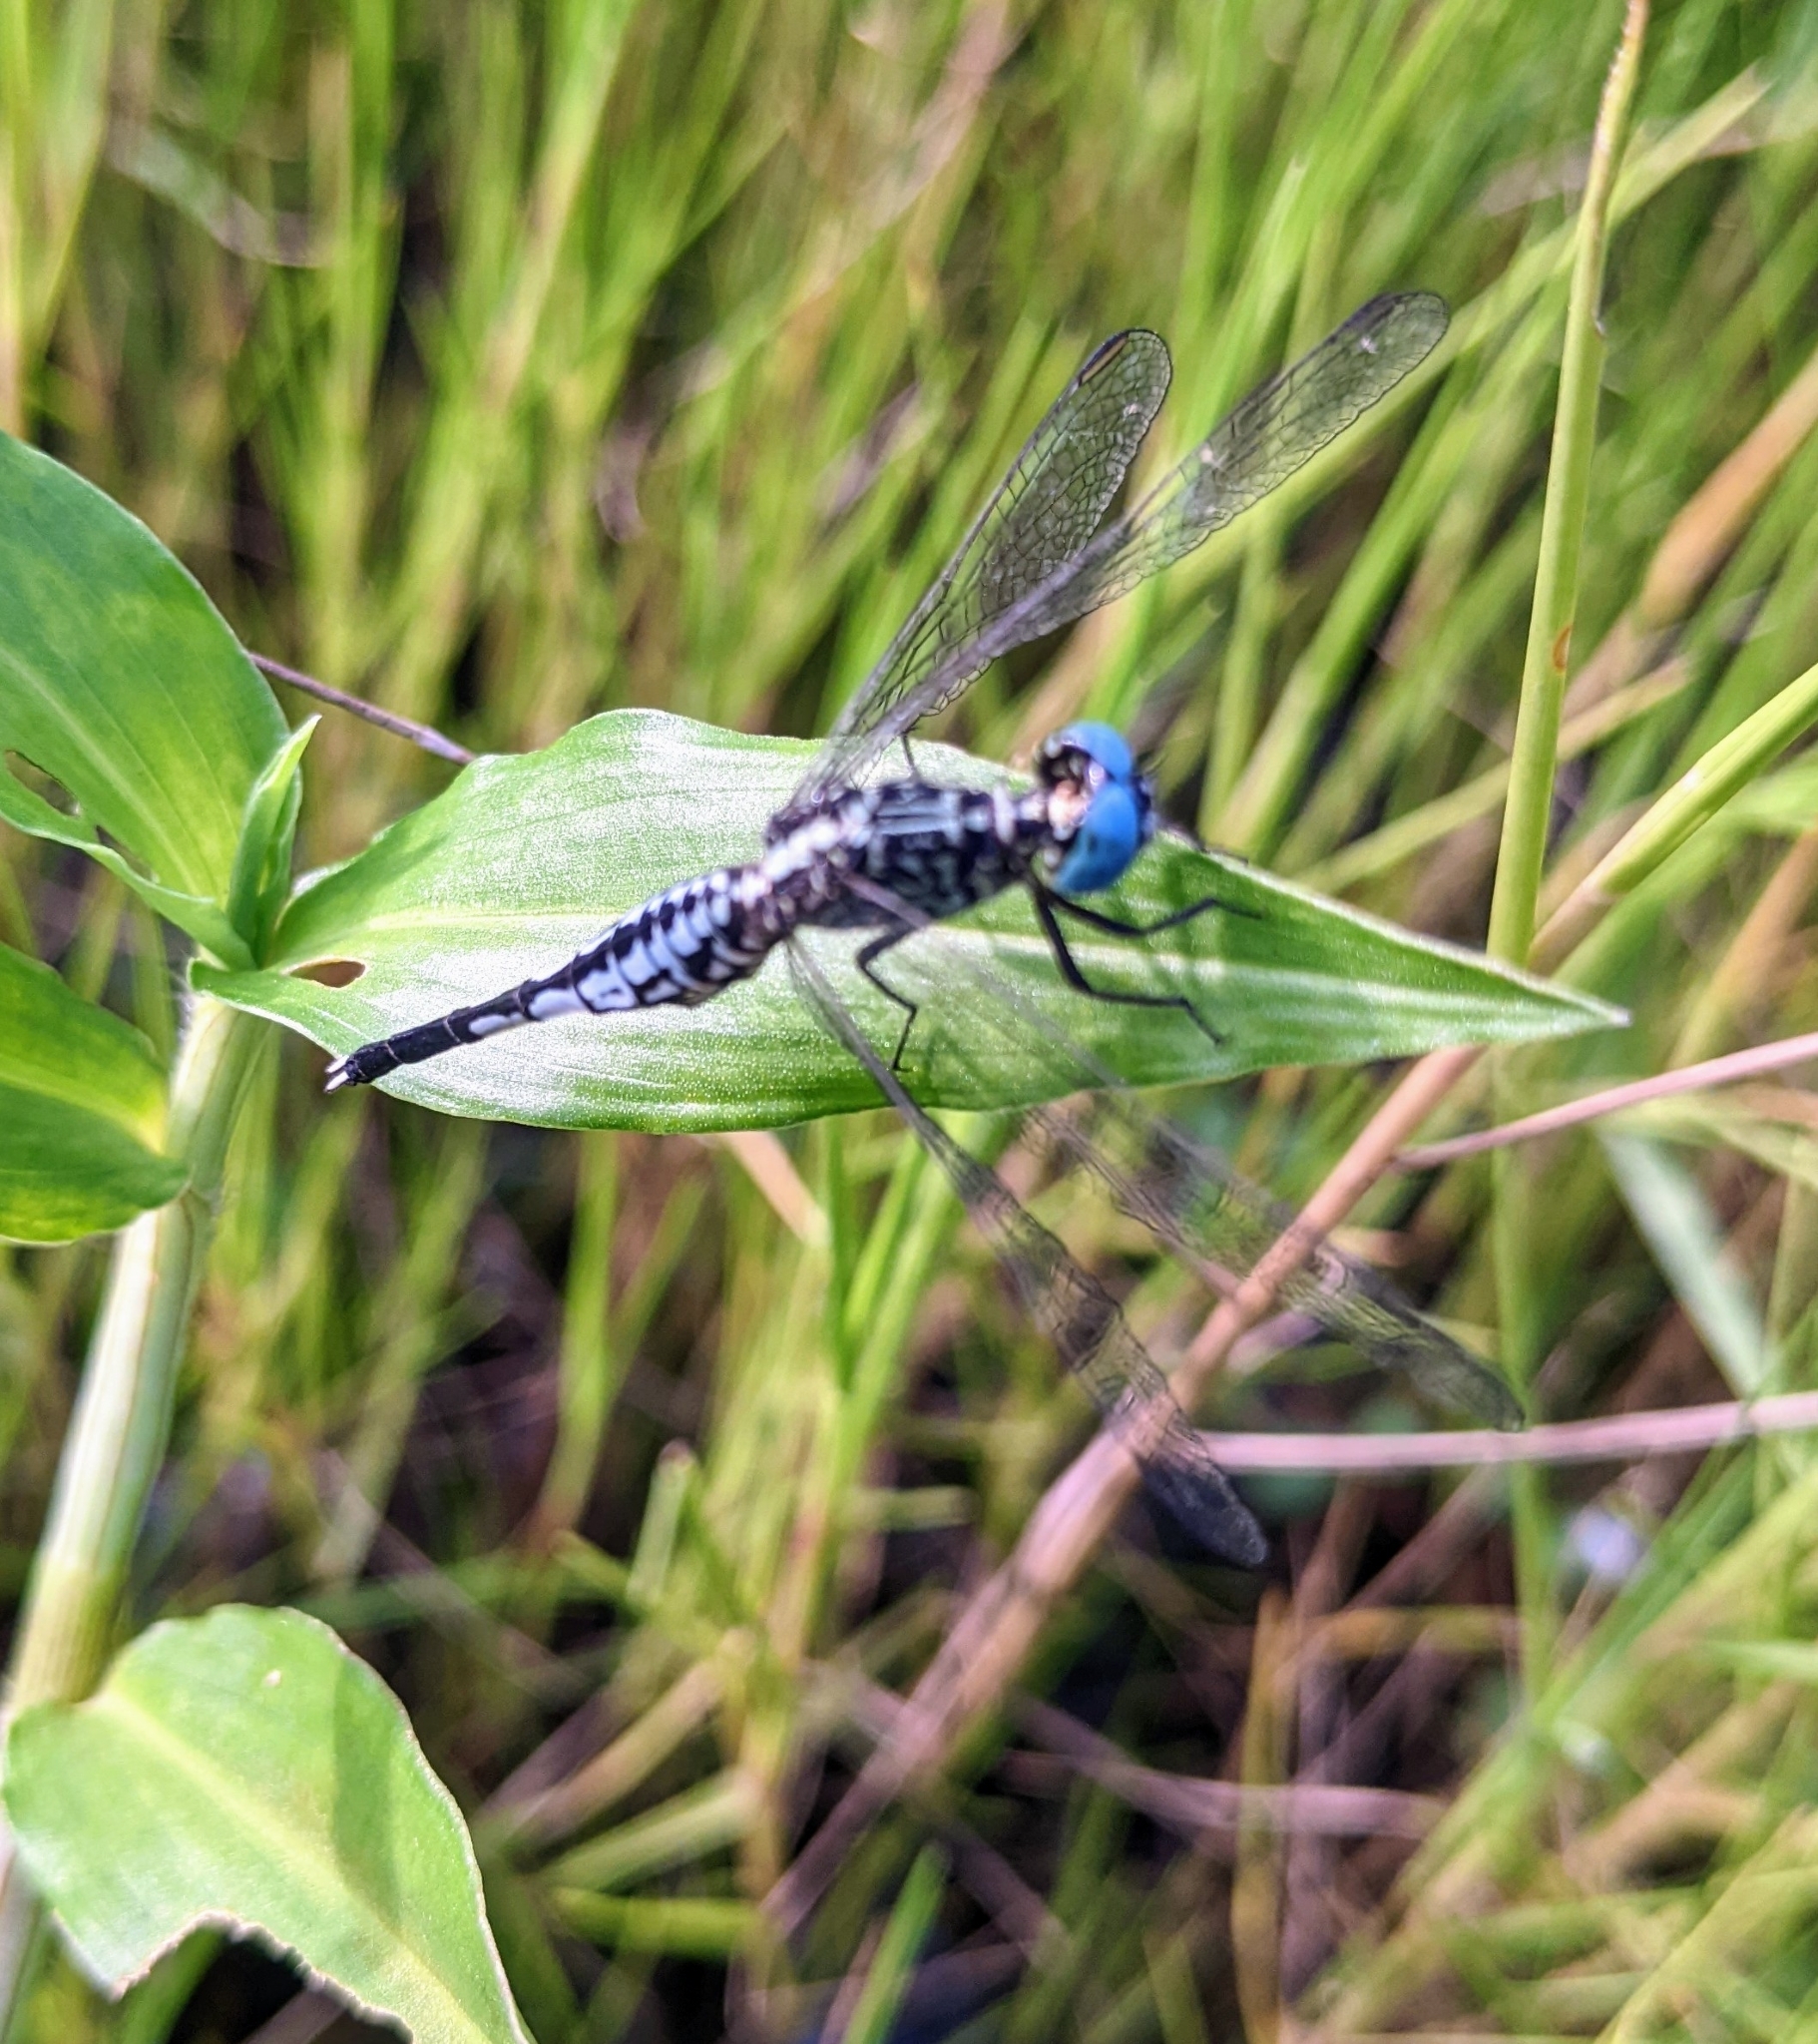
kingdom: Animalia
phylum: Arthropoda
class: Insecta
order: Odonata
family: Libellulidae
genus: Acisoma
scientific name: Acisoma panorpoides
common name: Asian pintail
